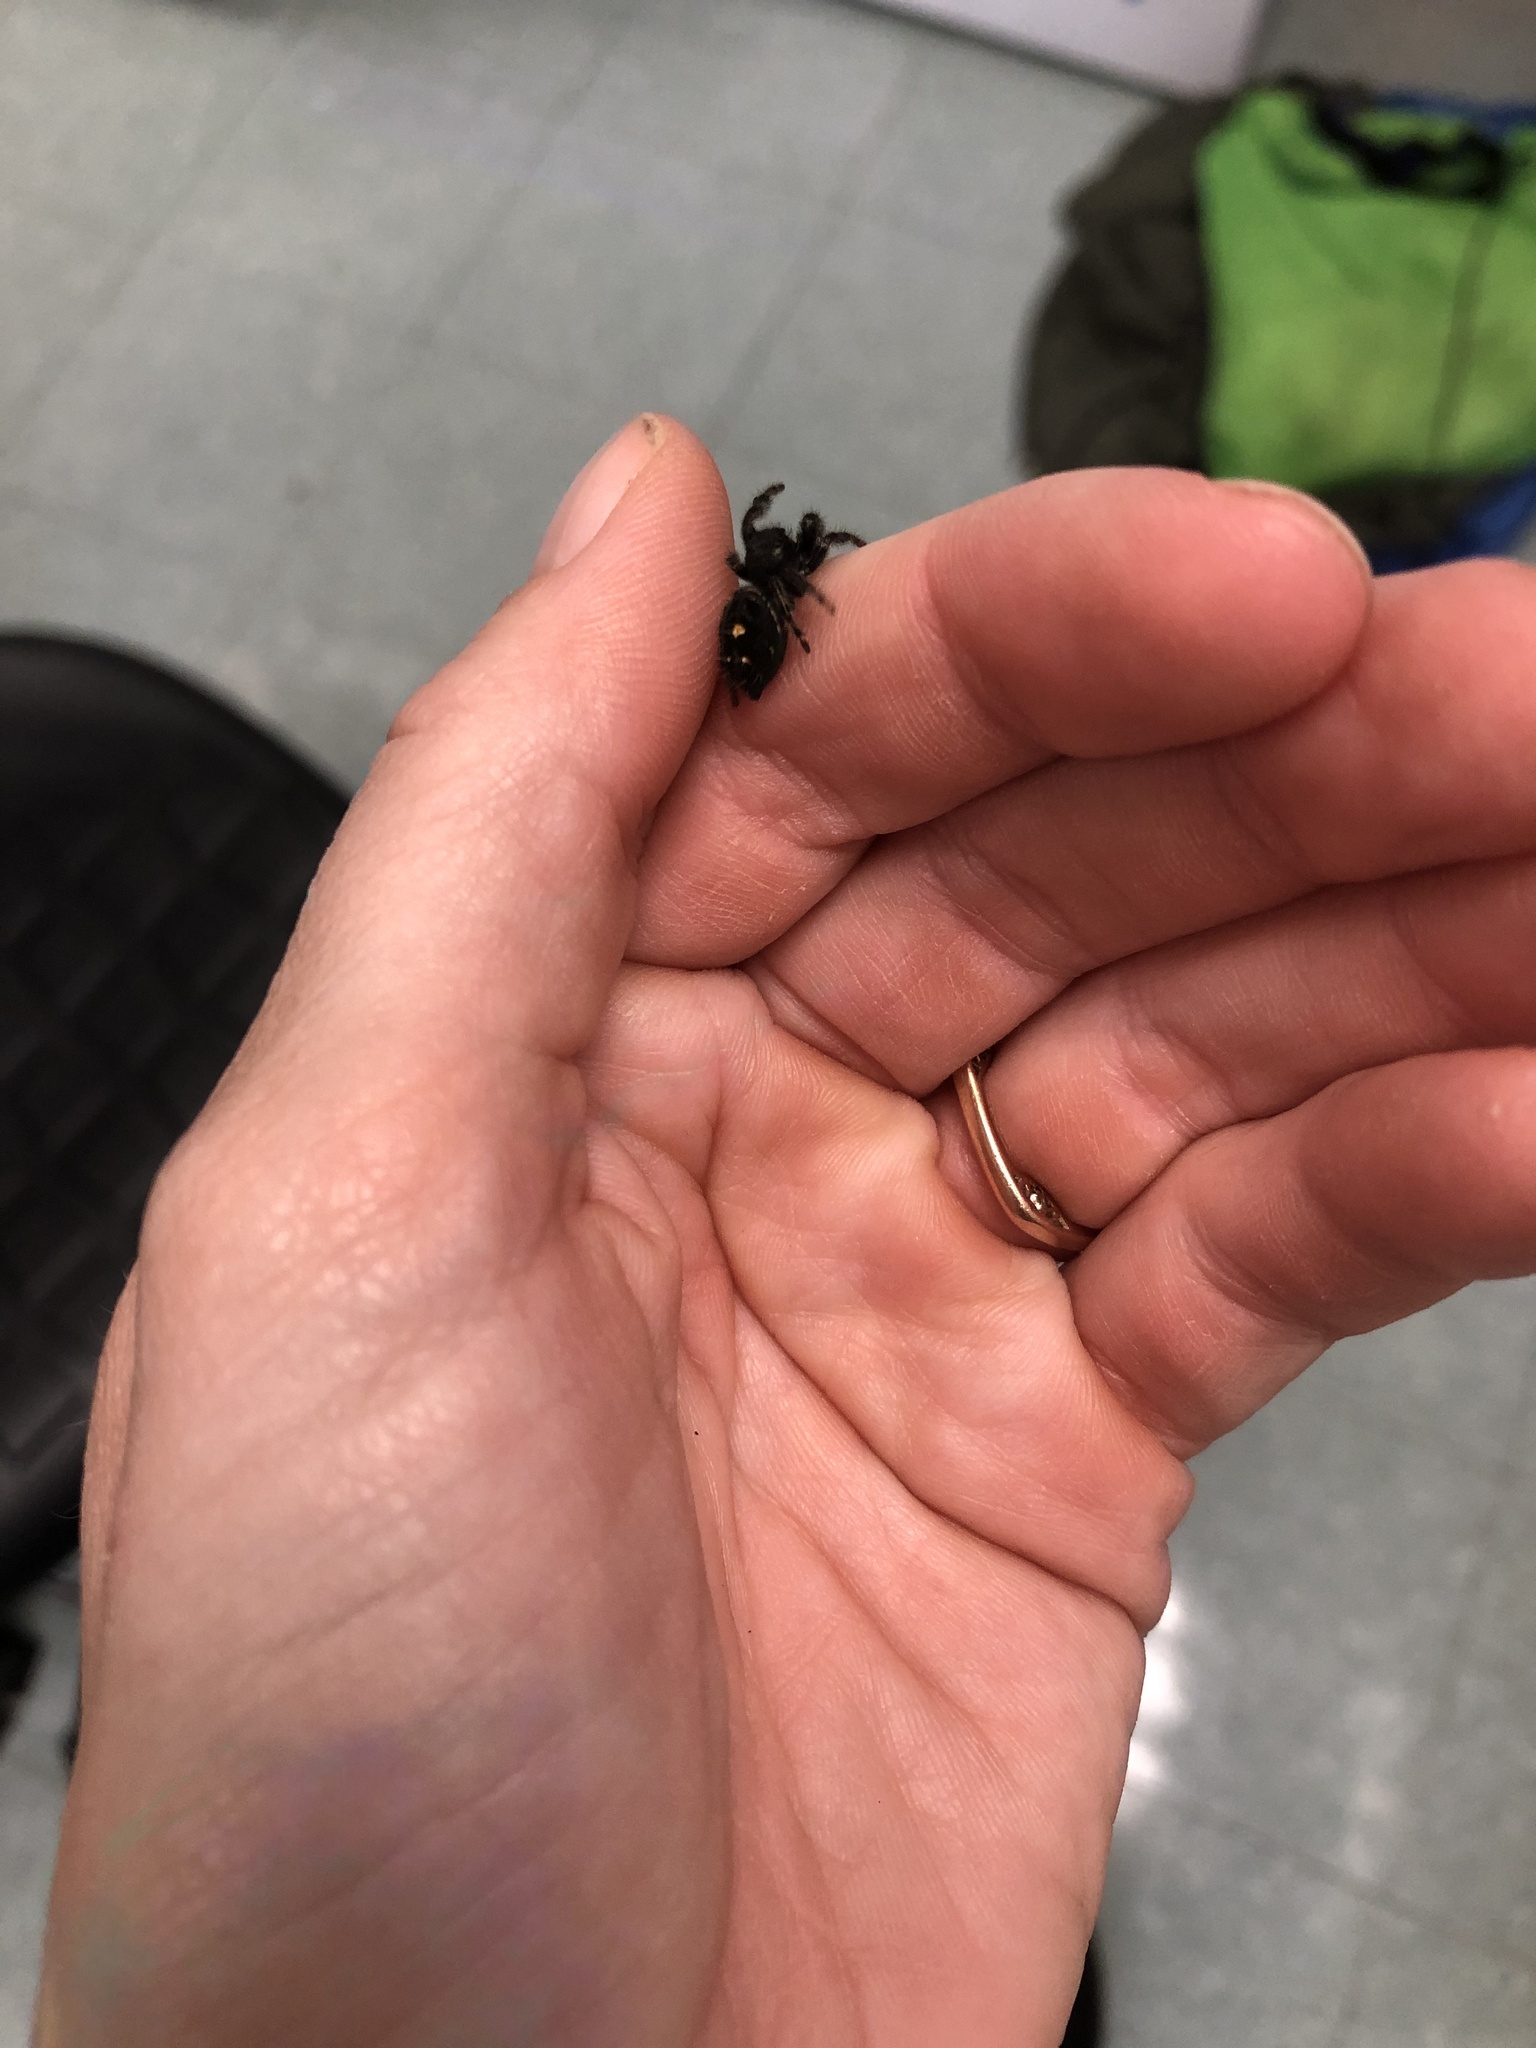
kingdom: Animalia
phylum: Arthropoda
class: Arachnida
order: Araneae
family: Salticidae
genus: Phidippus
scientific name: Phidippus audax
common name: Bold jumper
